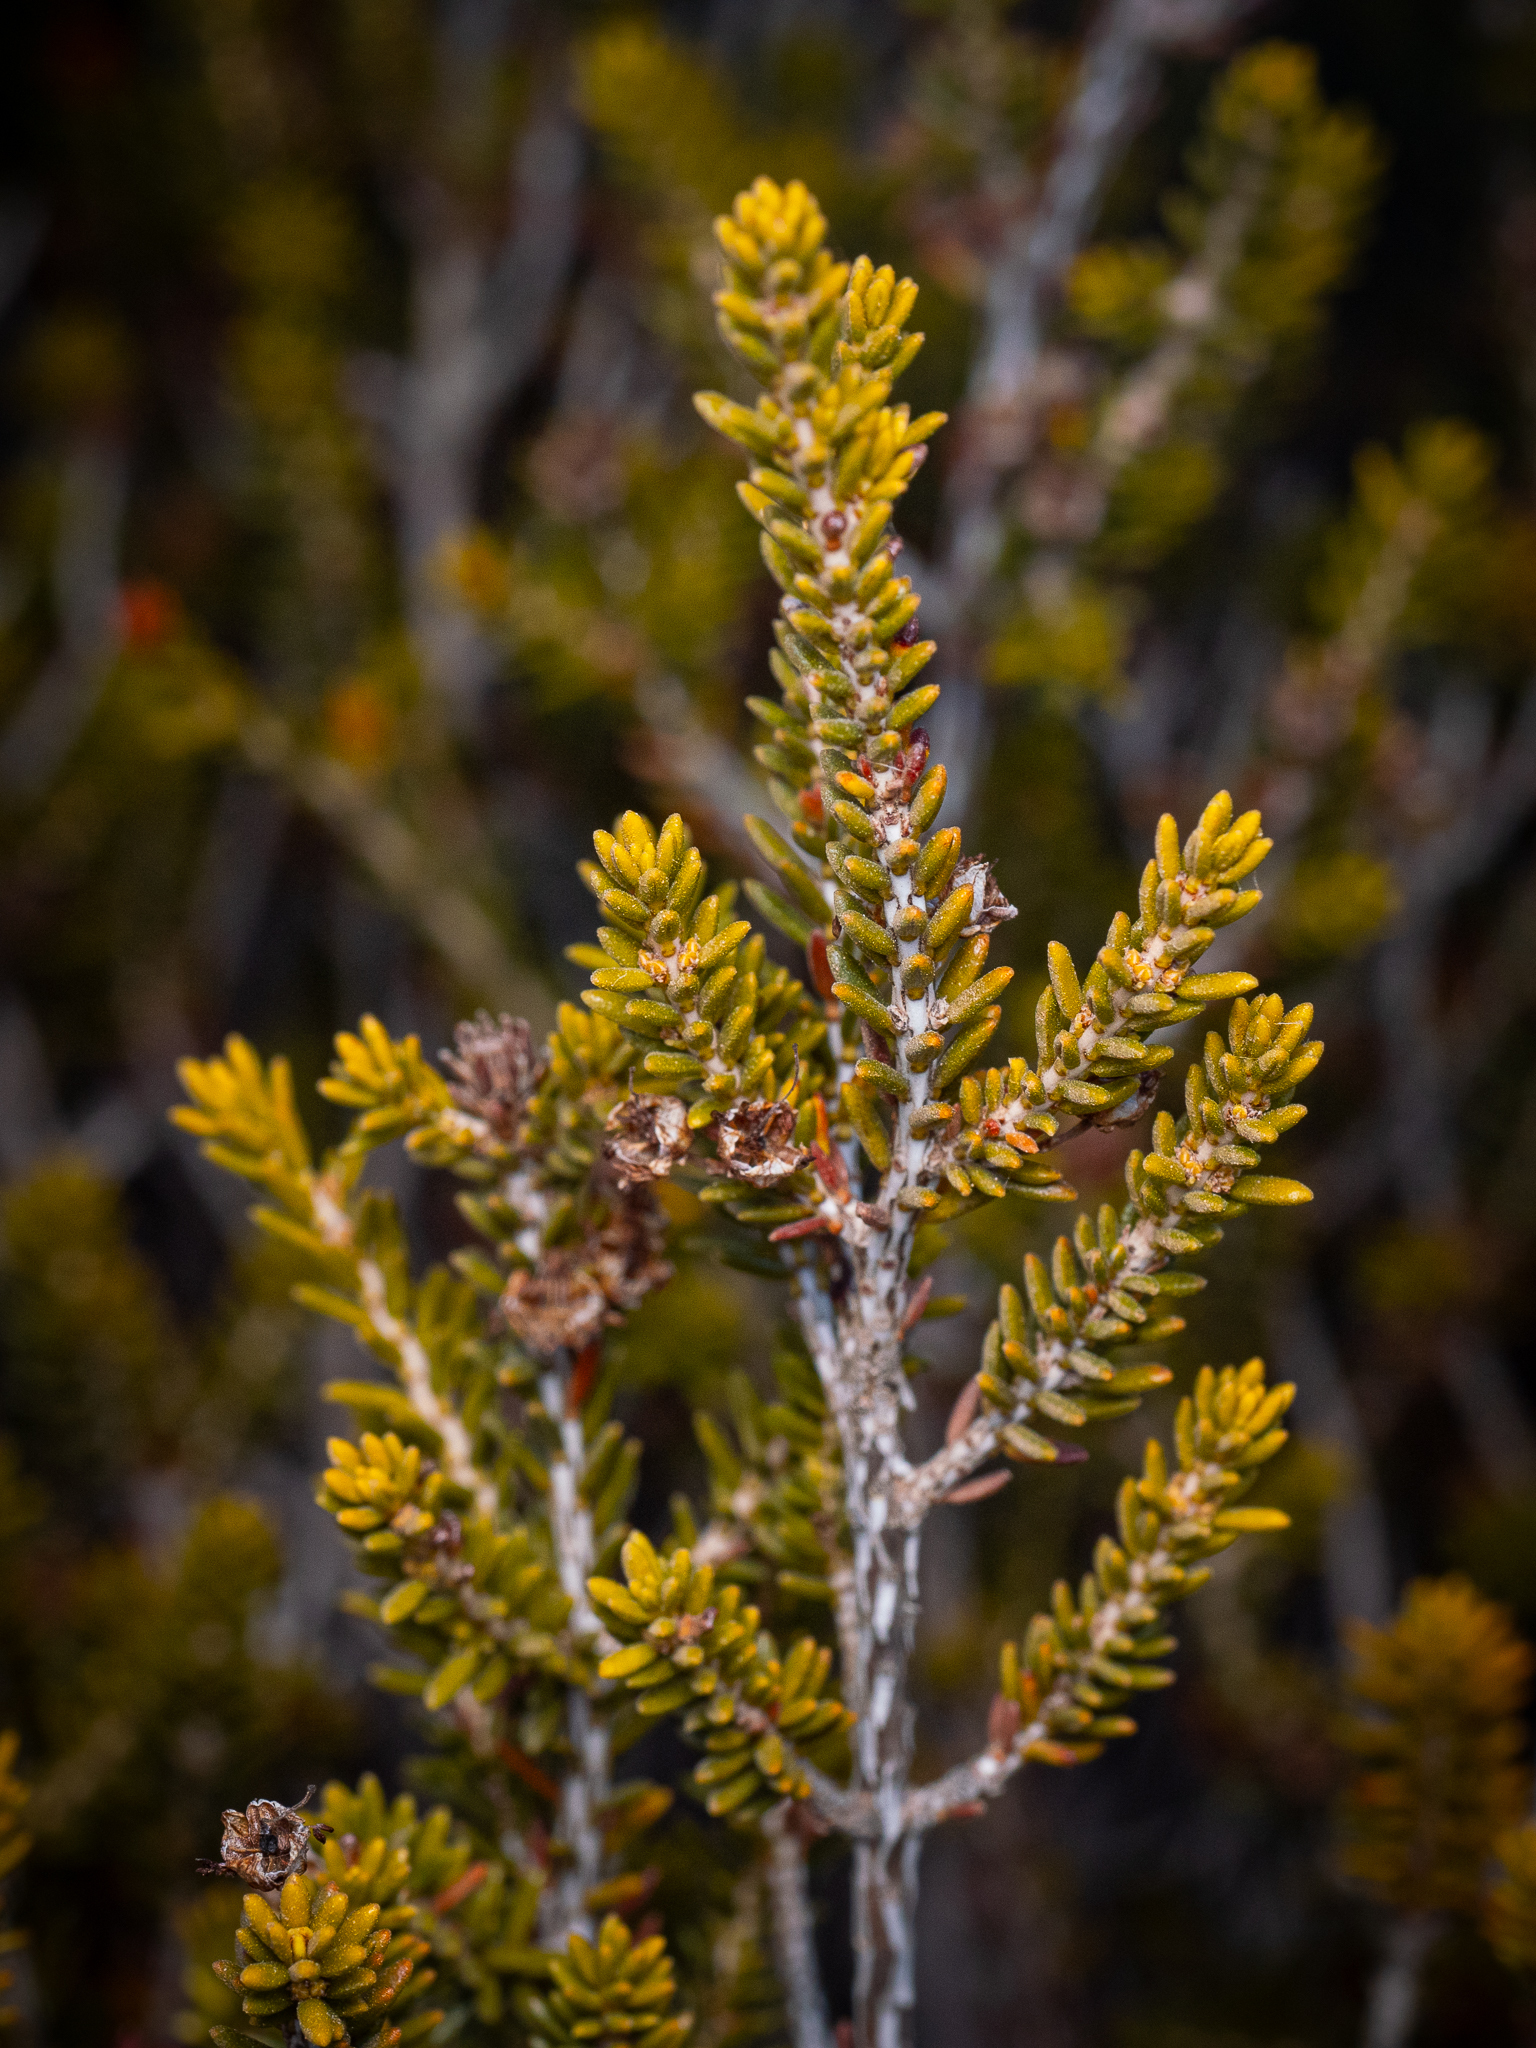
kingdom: Plantae
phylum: Tracheophyta
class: Magnoliopsida
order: Ericales
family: Ericaceae
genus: Erica
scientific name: Erica manipuliflora
